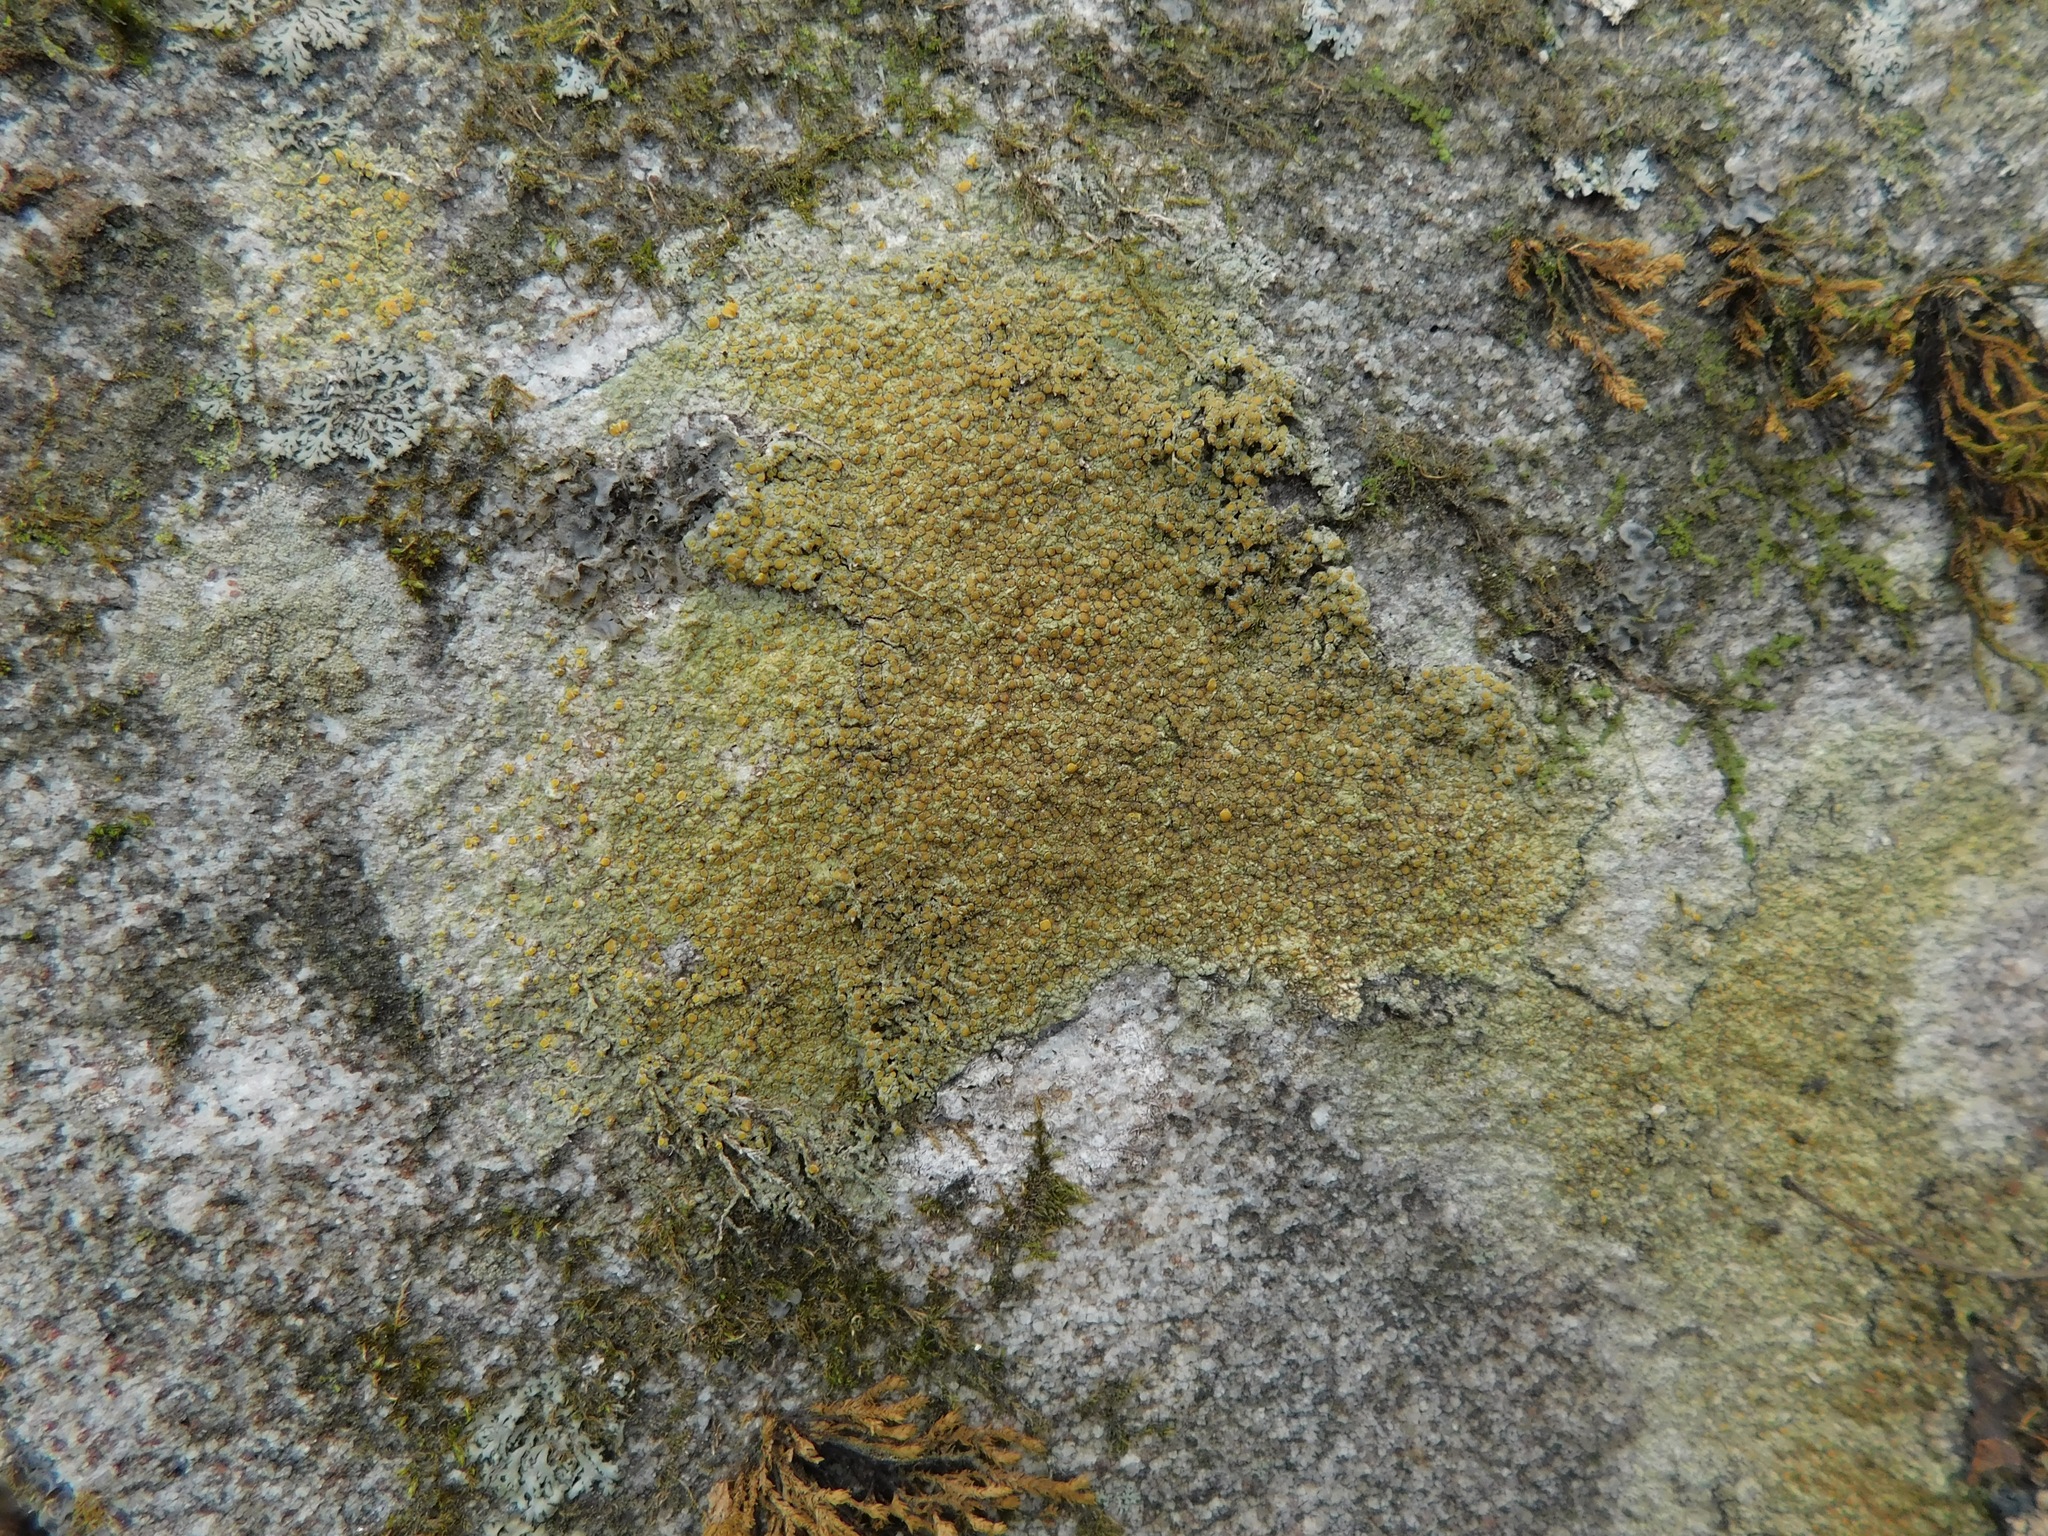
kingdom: Fungi
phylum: Ascomycota
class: Lecanoromycetes
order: Teloschistales
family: Teloschistaceae
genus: Gyalolechia
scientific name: Gyalolechia flavovirescens
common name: Sulphur firedot
